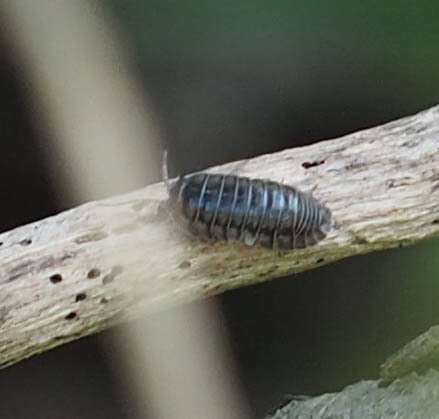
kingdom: Animalia
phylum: Arthropoda
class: Malacostraca
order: Isopoda
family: Armadillidiidae
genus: Armadillidium
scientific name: Armadillidium nasatum
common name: Isopod
